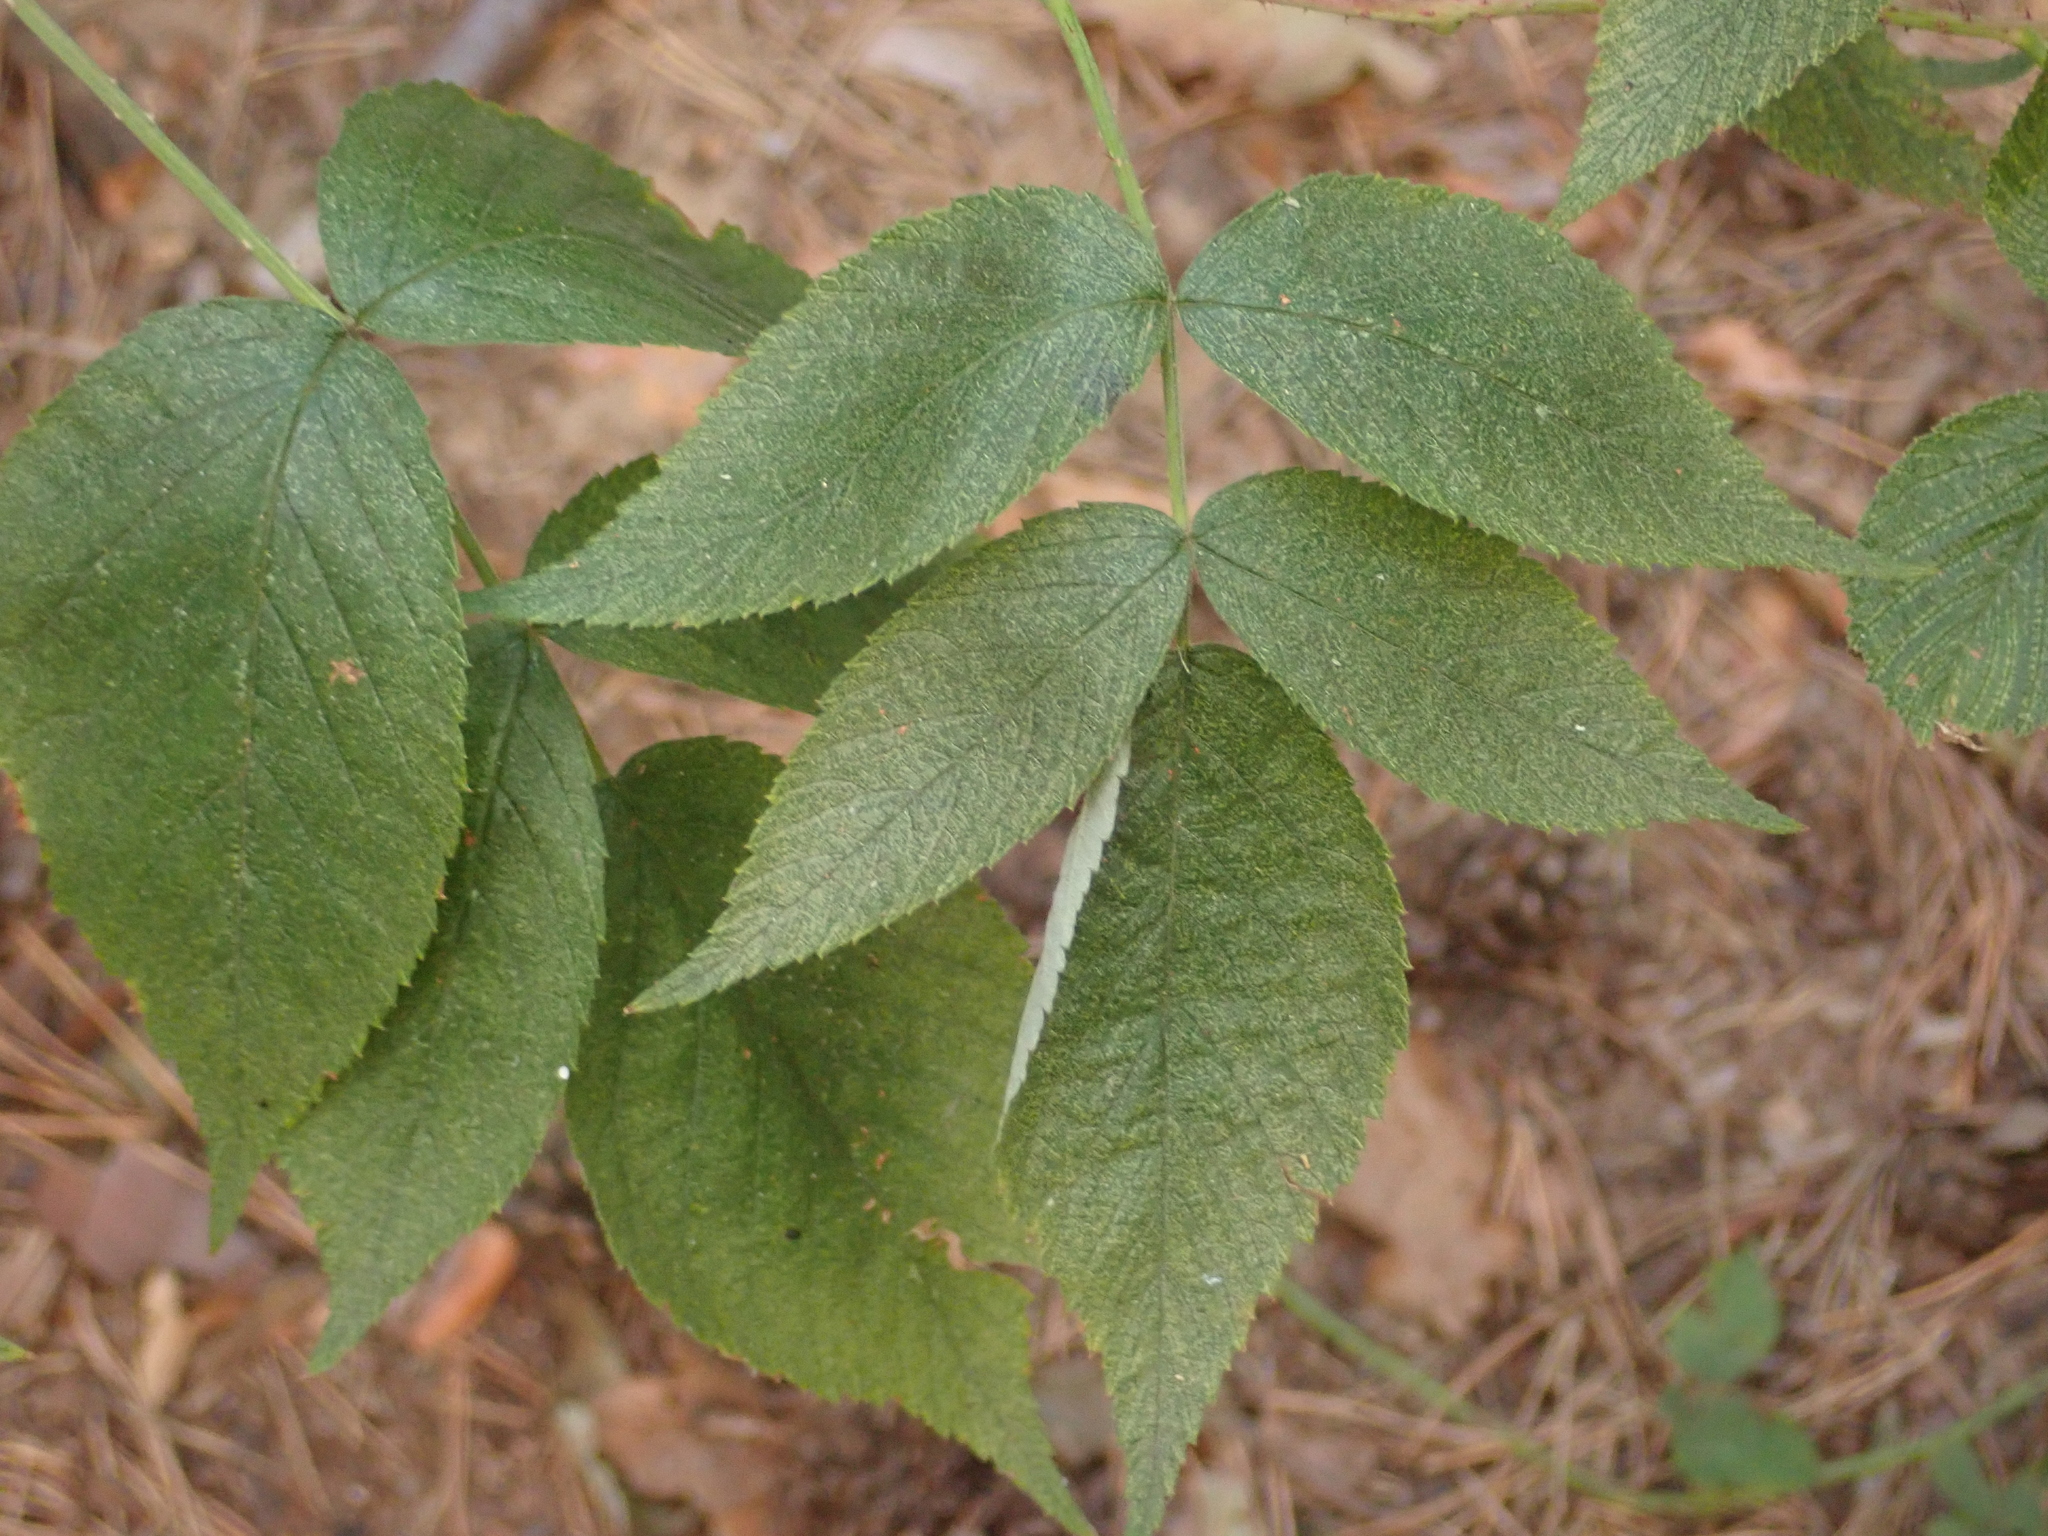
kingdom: Plantae
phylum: Tracheophyta
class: Magnoliopsida
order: Dipsacales
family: Viburnaceae
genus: Sambucus
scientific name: Sambucus nigra
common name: Elder
